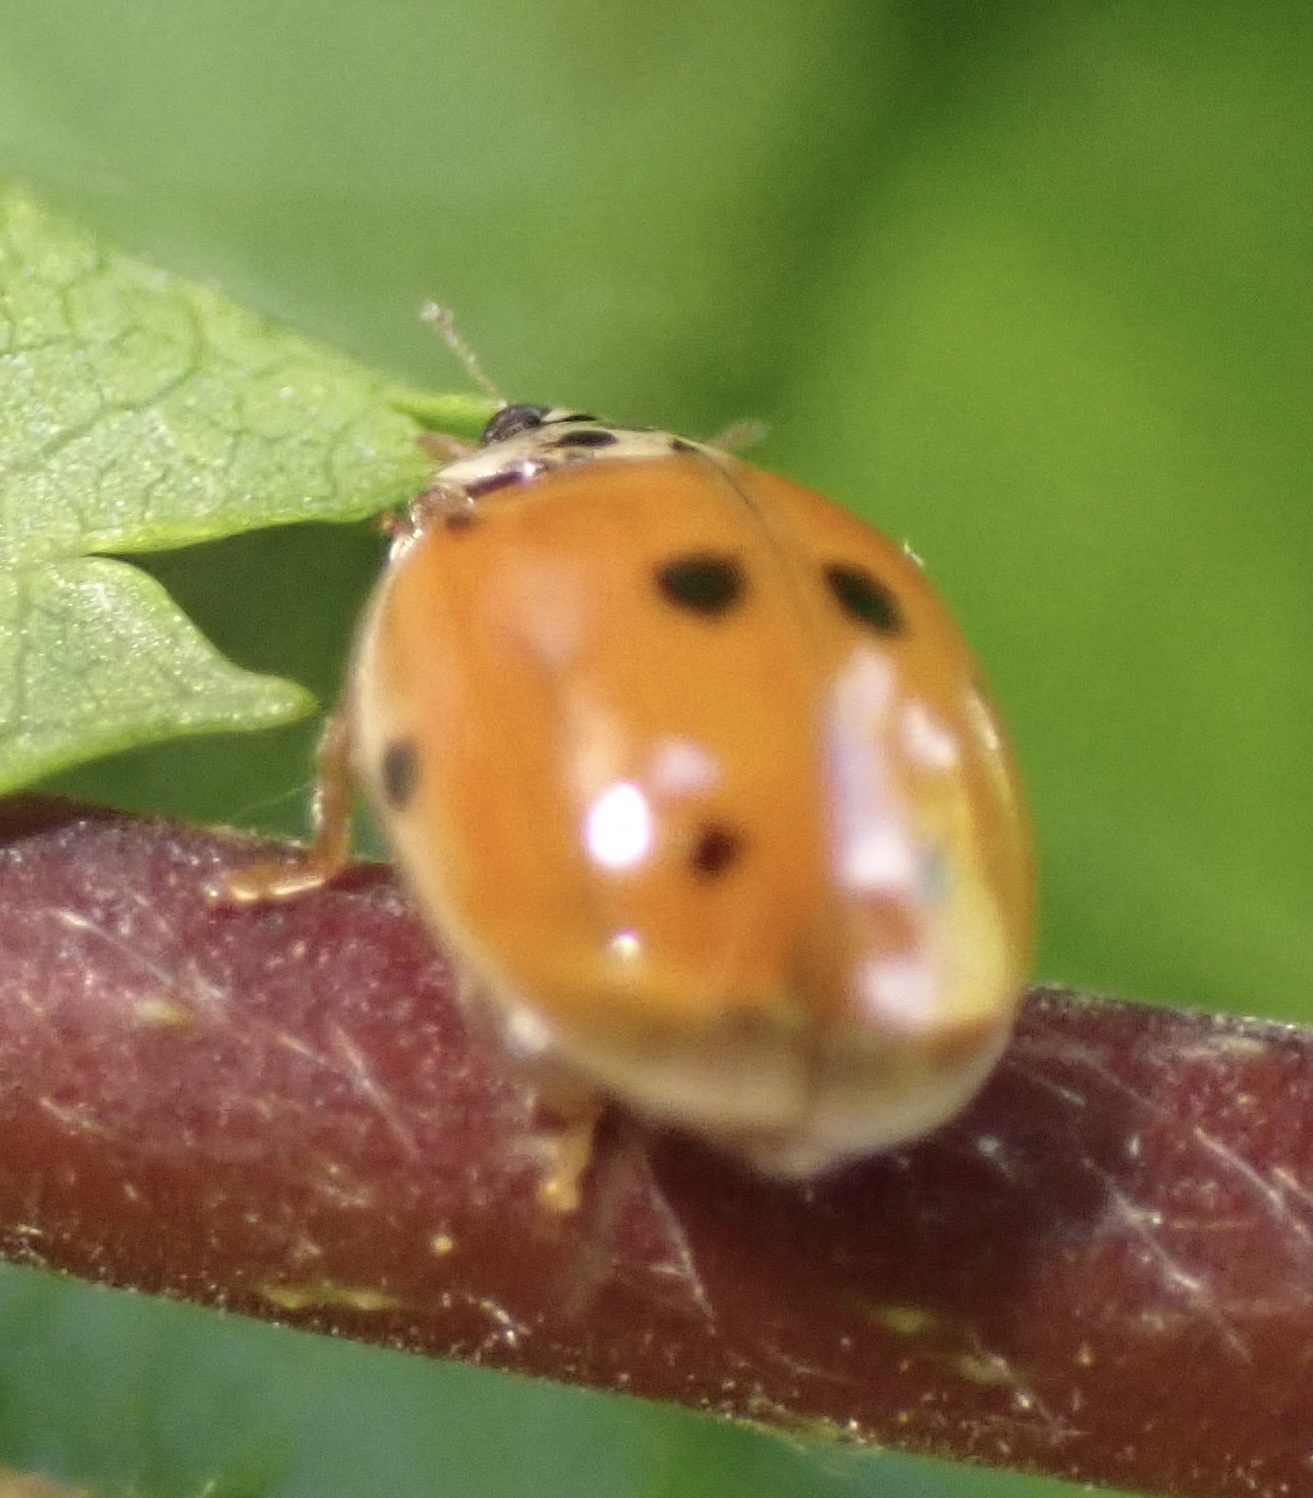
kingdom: Animalia
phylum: Arthropoda
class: Insecta
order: Coleoptera
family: Coccinellidae
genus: Adalia
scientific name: Adalia decempunctata
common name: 10-spot ladybird
